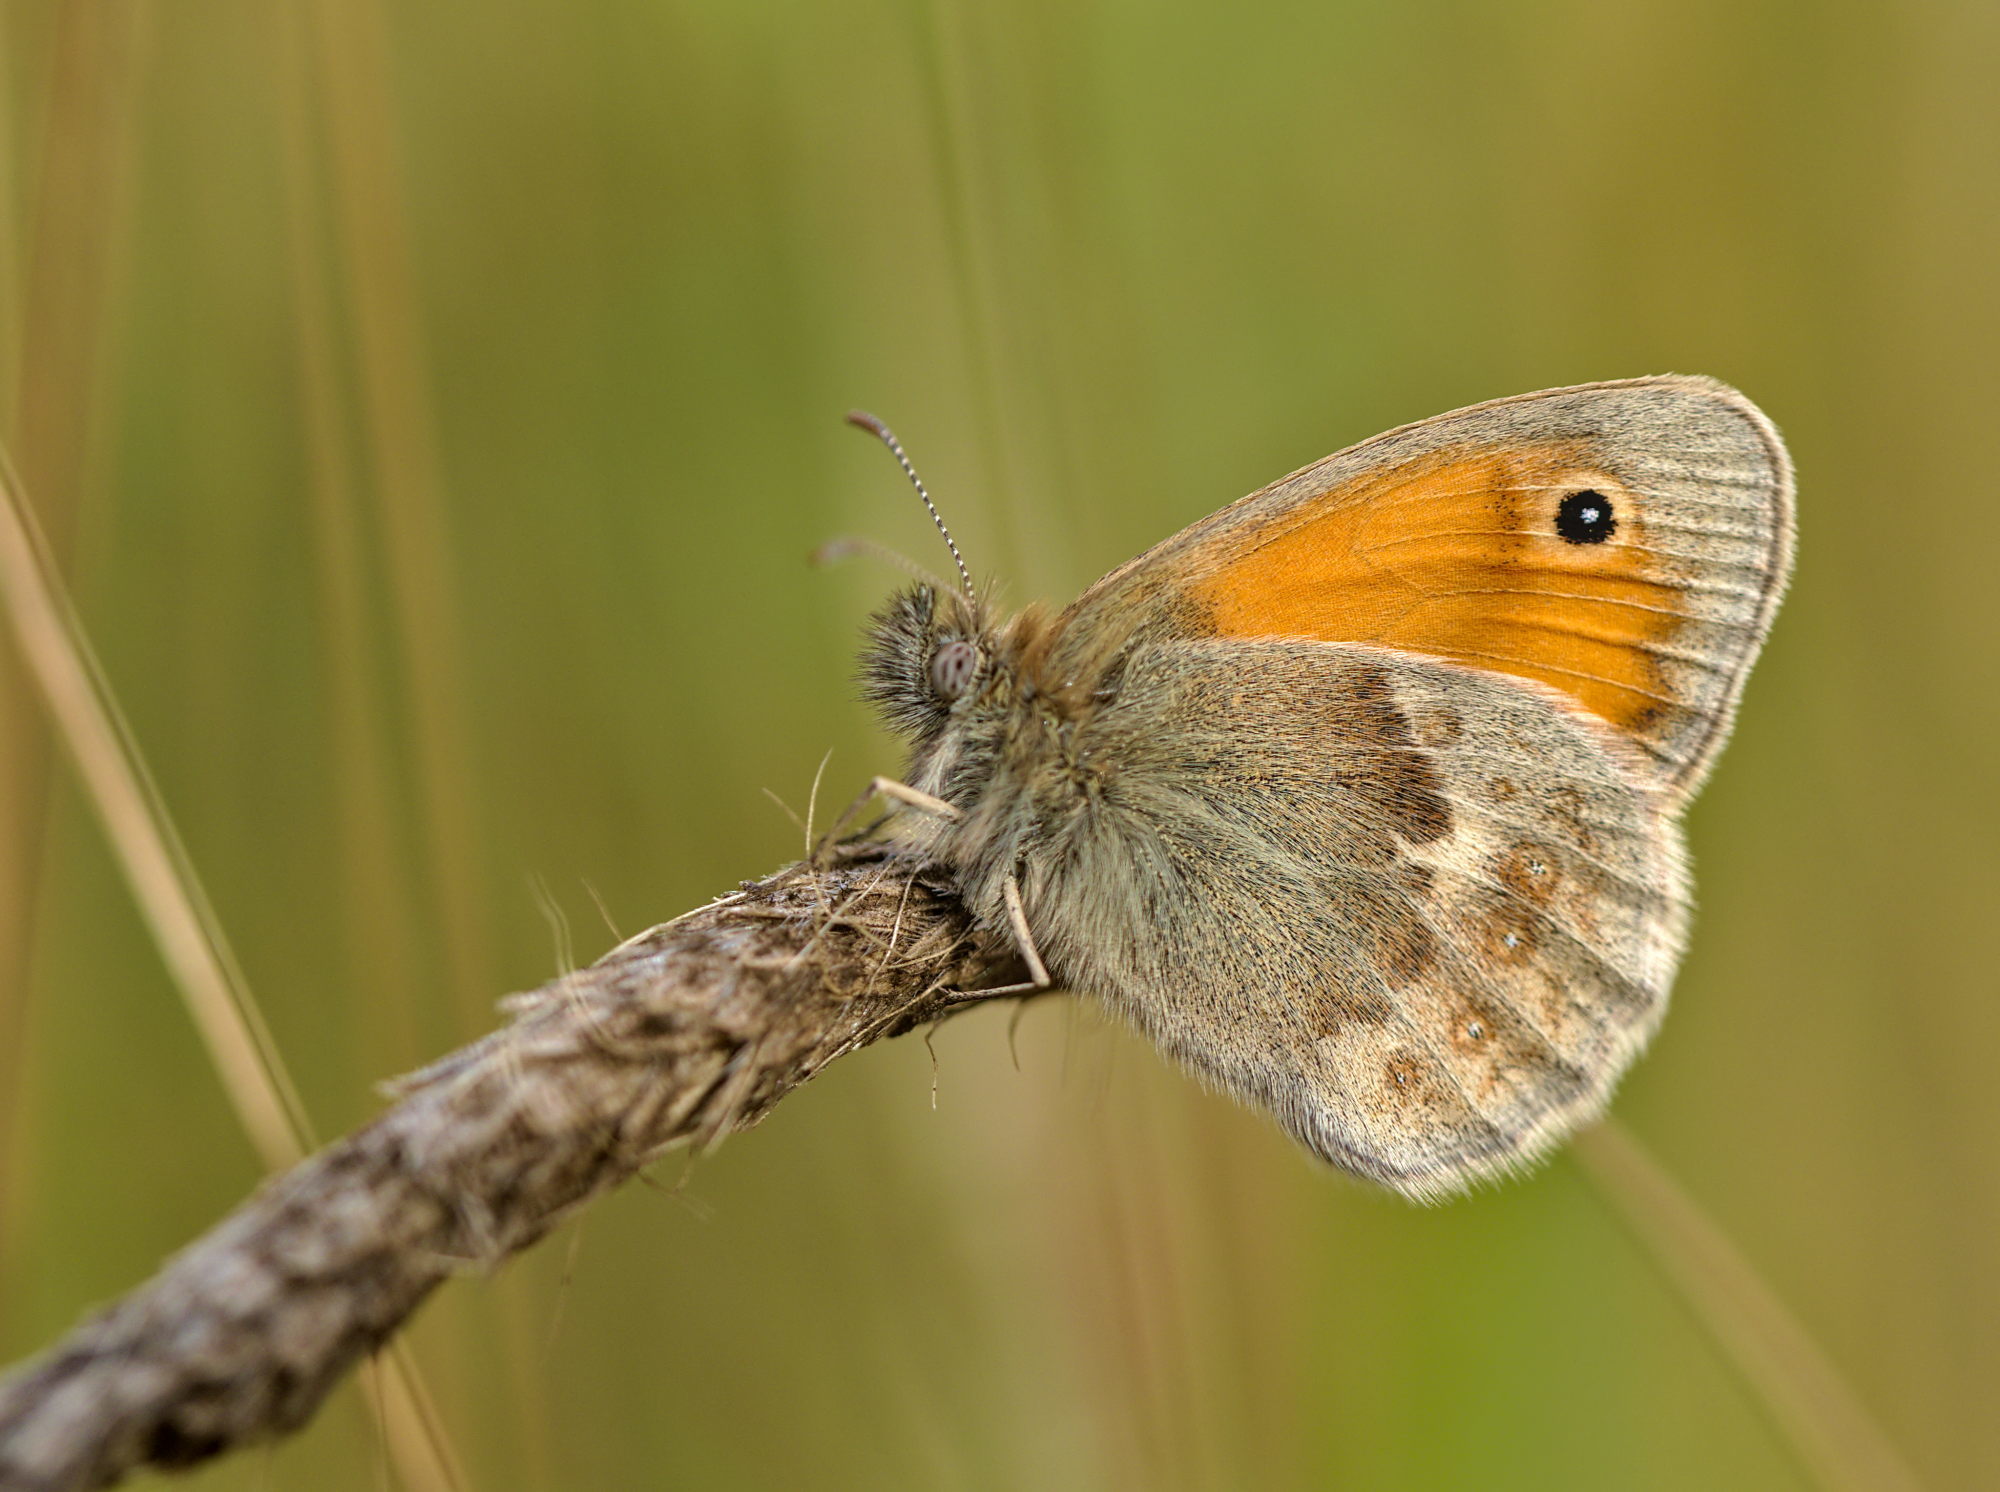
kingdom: Animalia
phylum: Arthropoda
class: Insecta
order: Lepidoptera
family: Nymphalidae
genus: Coenonympha
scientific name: Coenonympha pamphilus
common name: Small heath
